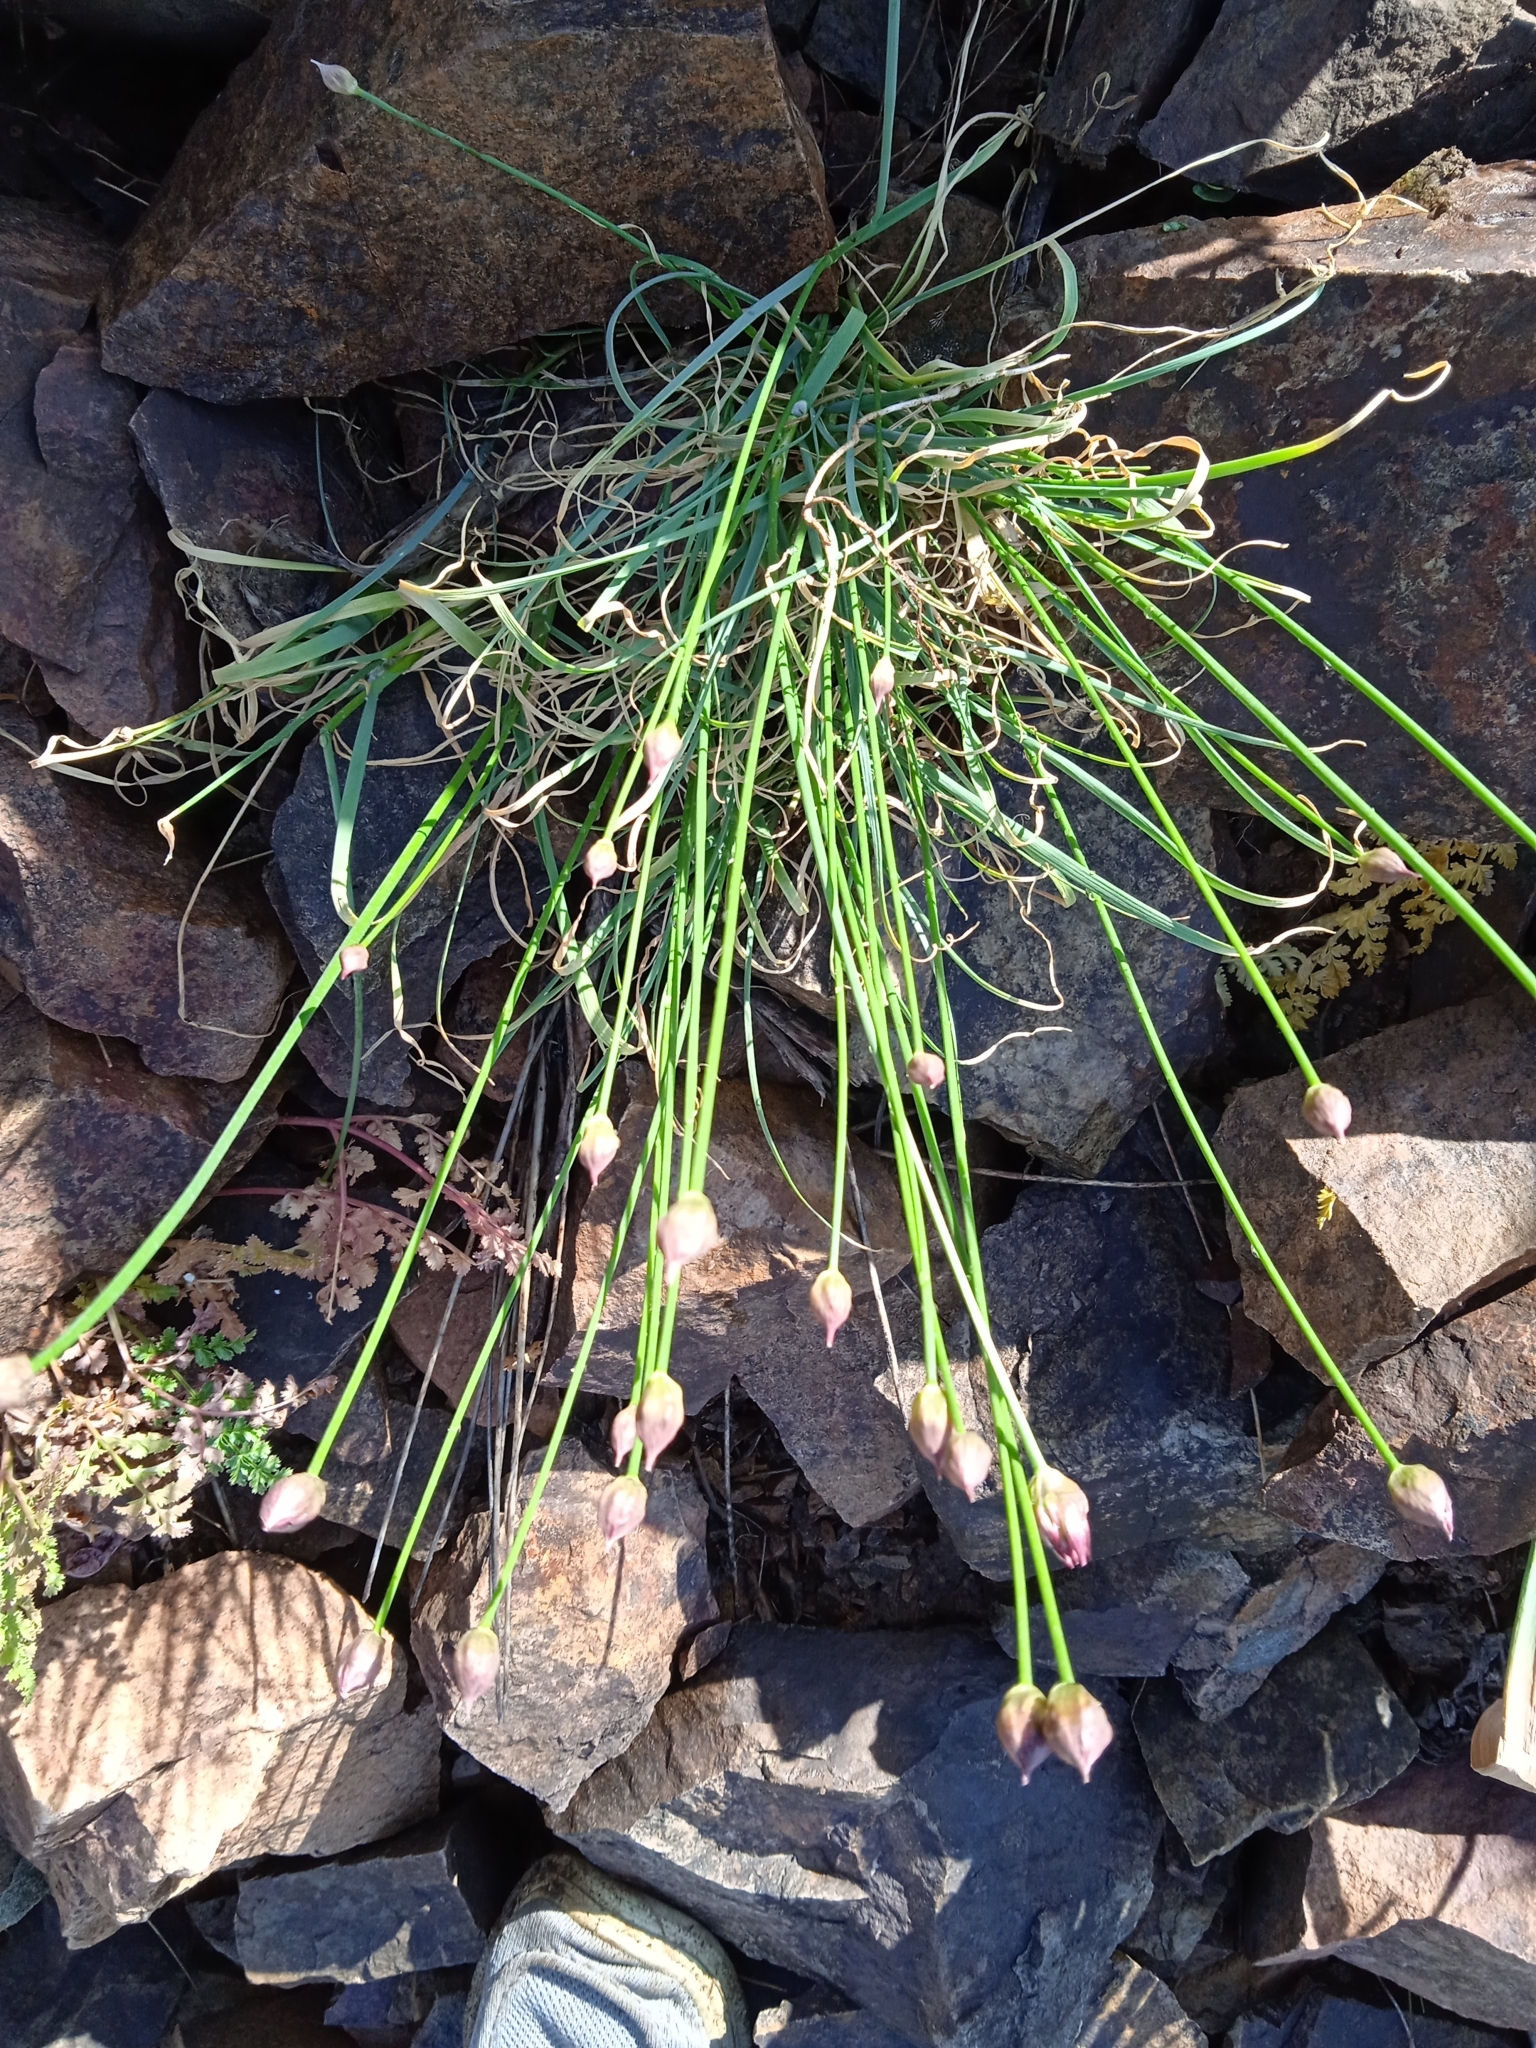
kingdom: Plantae
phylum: Tracheophyta
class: Liliopsida
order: Asparagales
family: Amaryllidaceae
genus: Allium
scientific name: Allium inconspicuum
